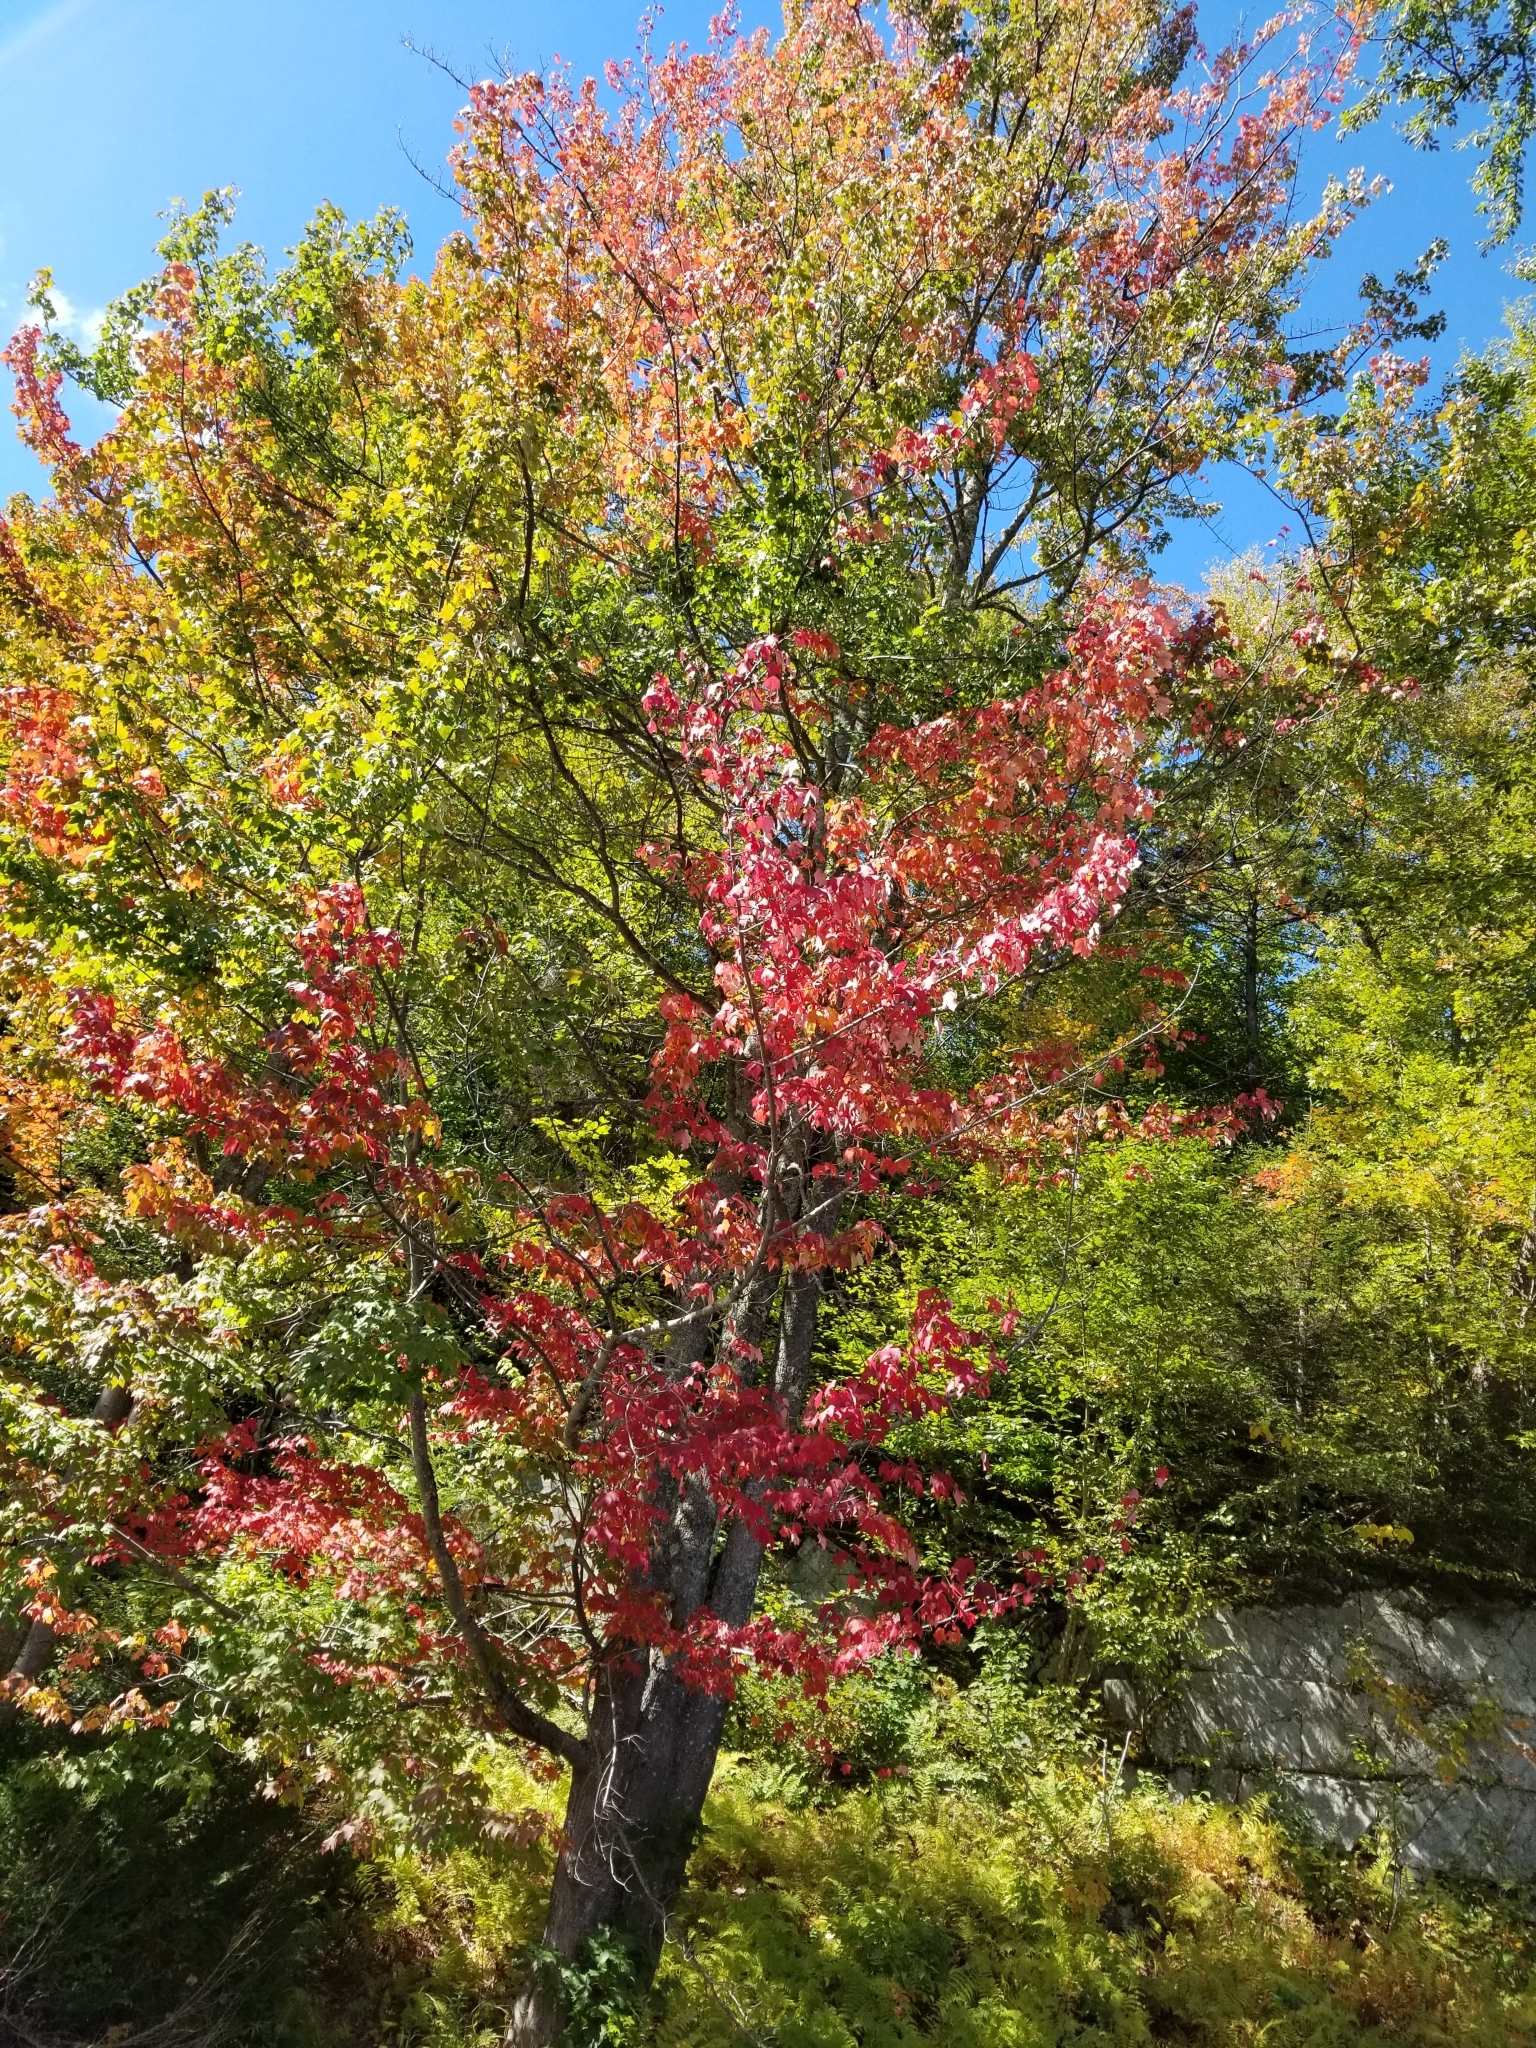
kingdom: Plantae
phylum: Tracheophyta
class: Magnoliopsida
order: Sapindales
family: Sapindaceae
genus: Acer
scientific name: Acer rubrum
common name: Red maple
